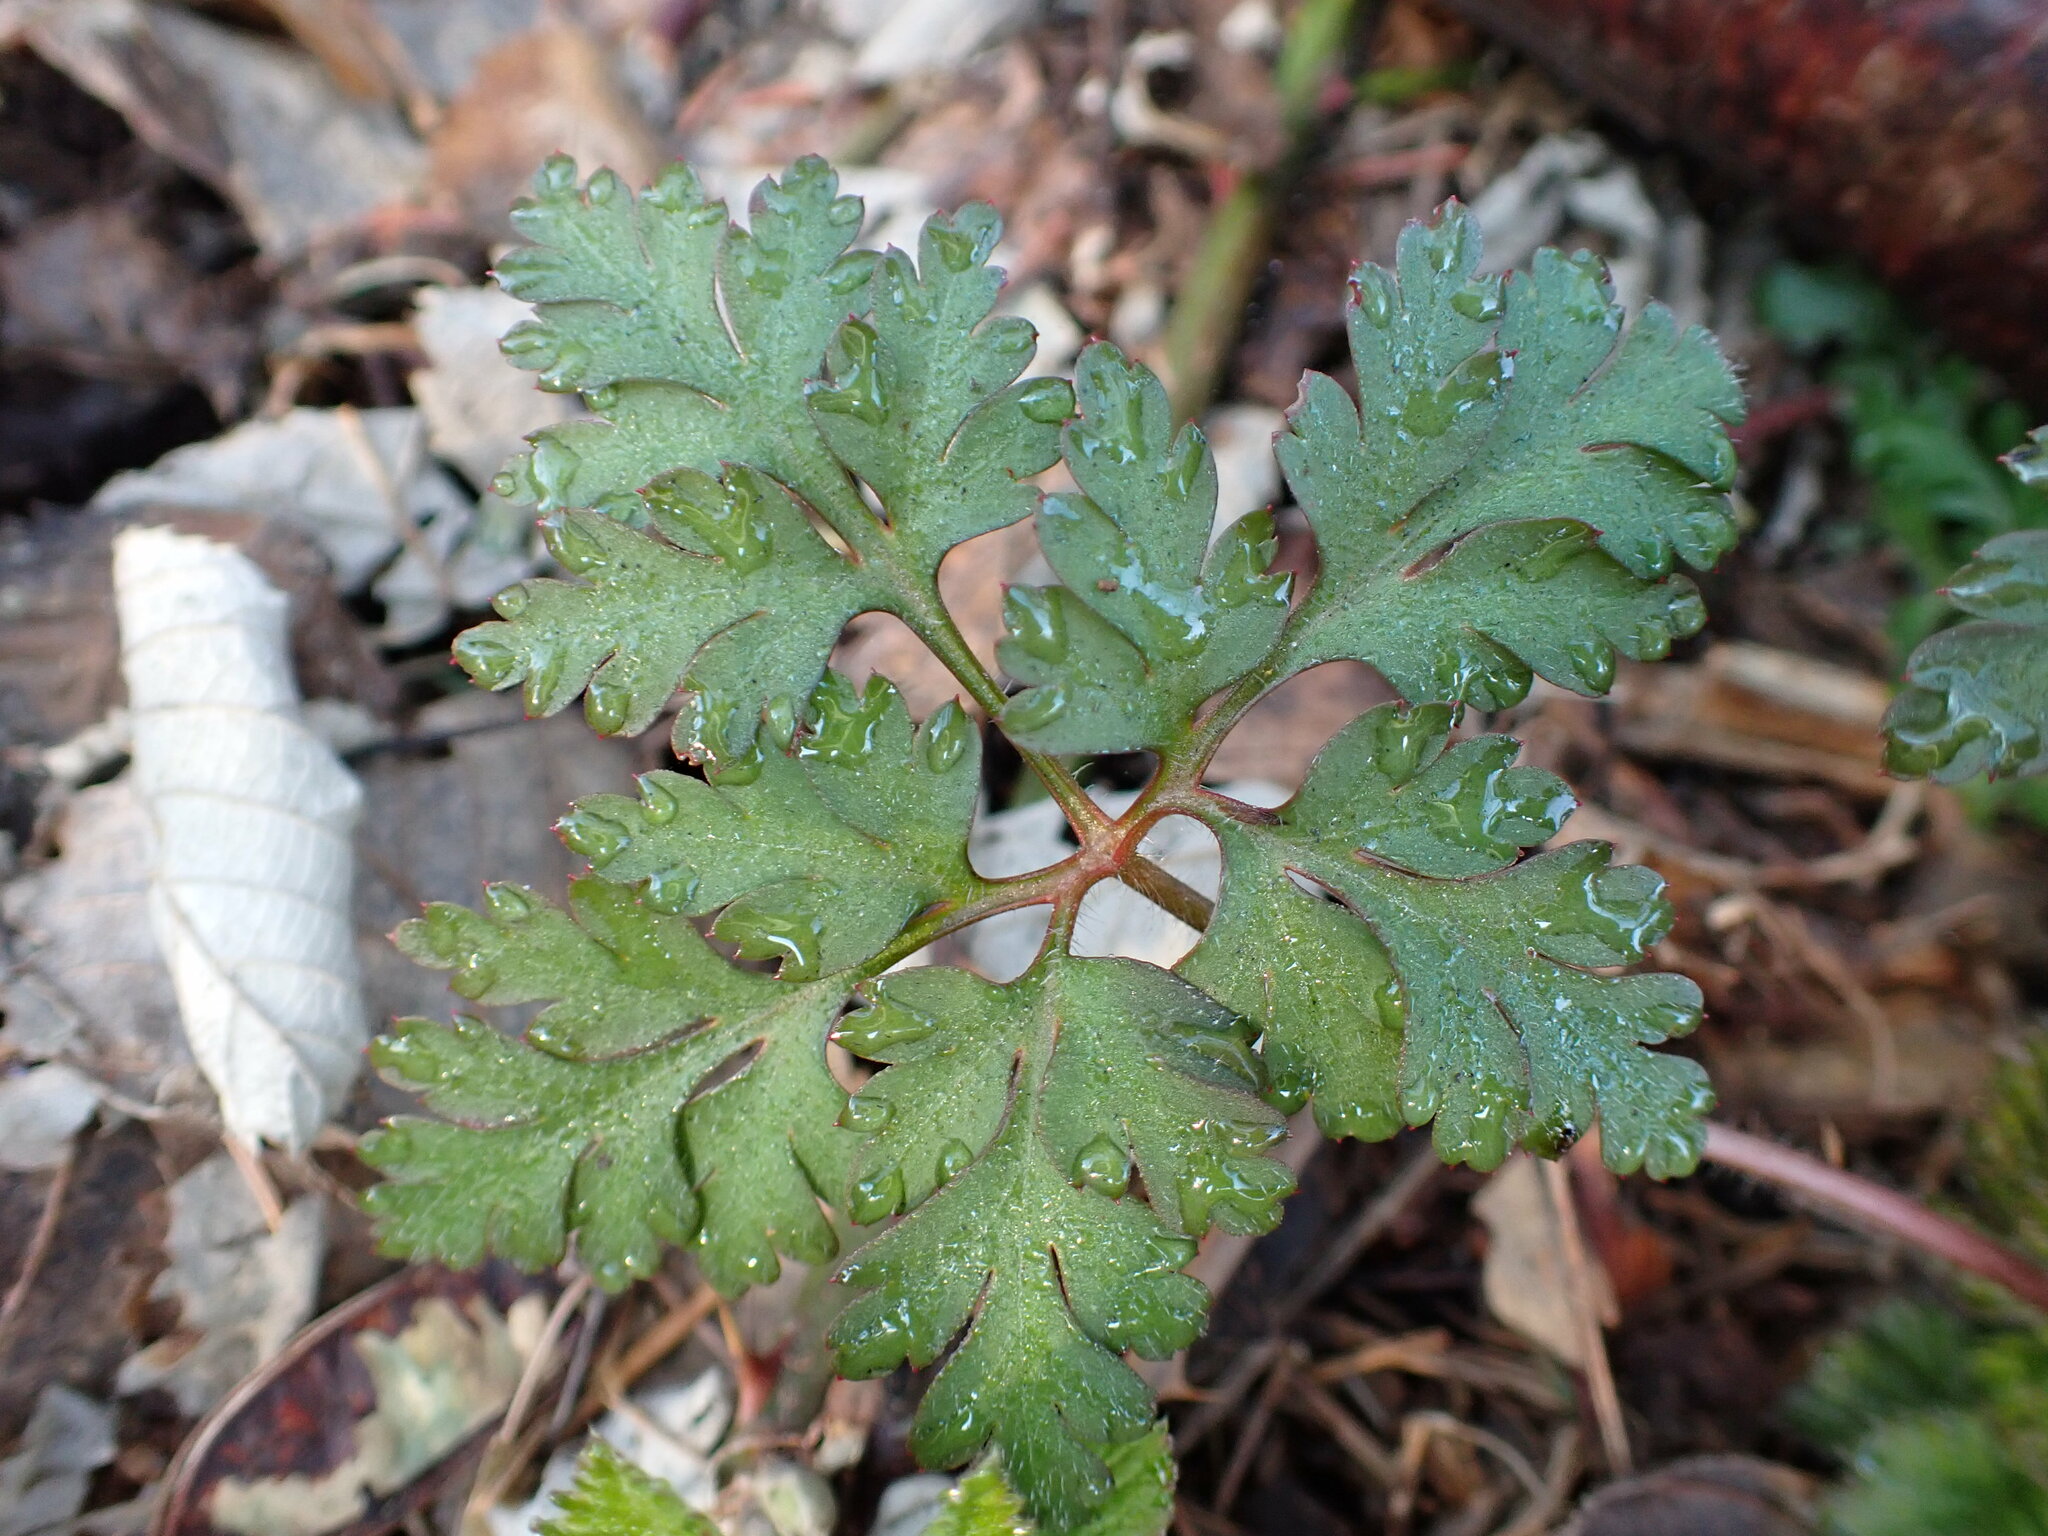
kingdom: Plantae
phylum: Tracheophyta
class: Magnoliopsida
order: Geraniales
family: Geraniaceae
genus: Geranium
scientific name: Geranium robertianum
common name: Herb-robert
